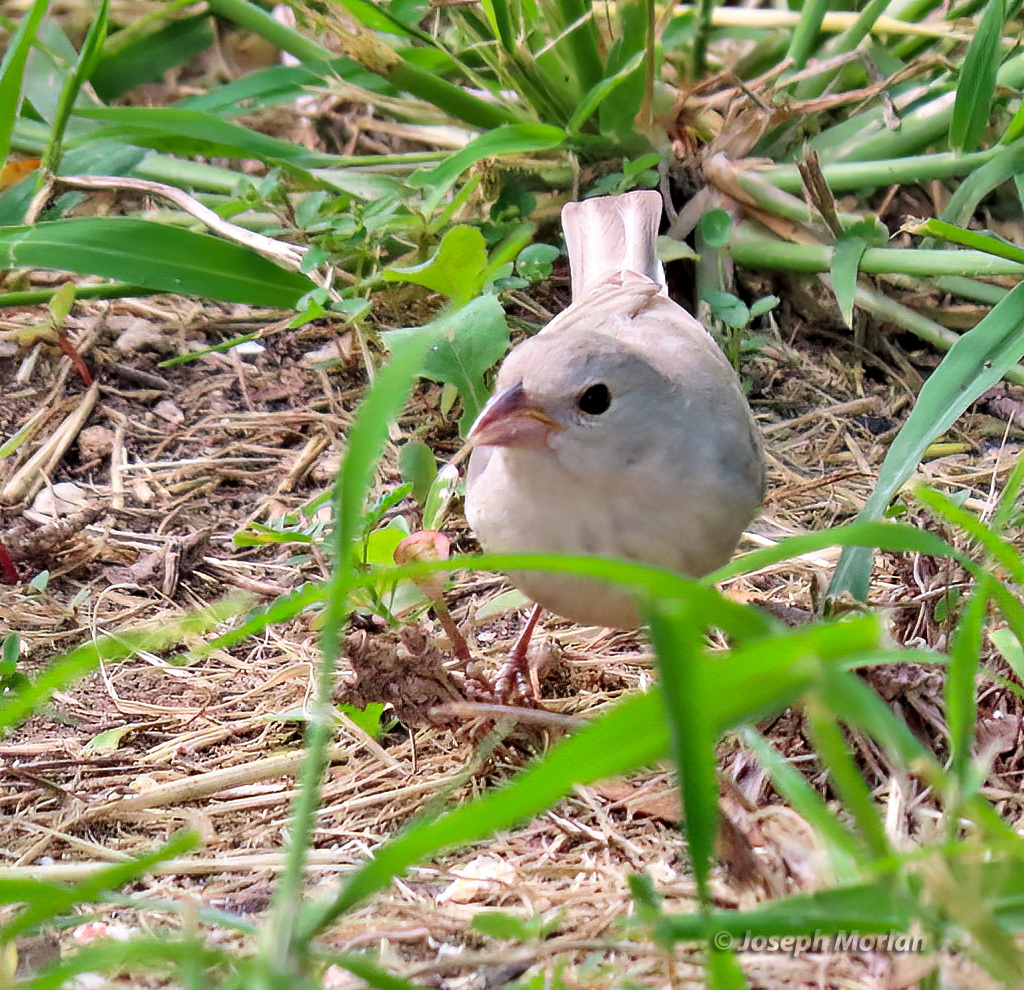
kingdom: Animalia
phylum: Chordata
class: Aves
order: Passeriformes
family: Cardinalidae
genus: Passerina
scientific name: Passerina cyanea
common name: Indigo bunting
